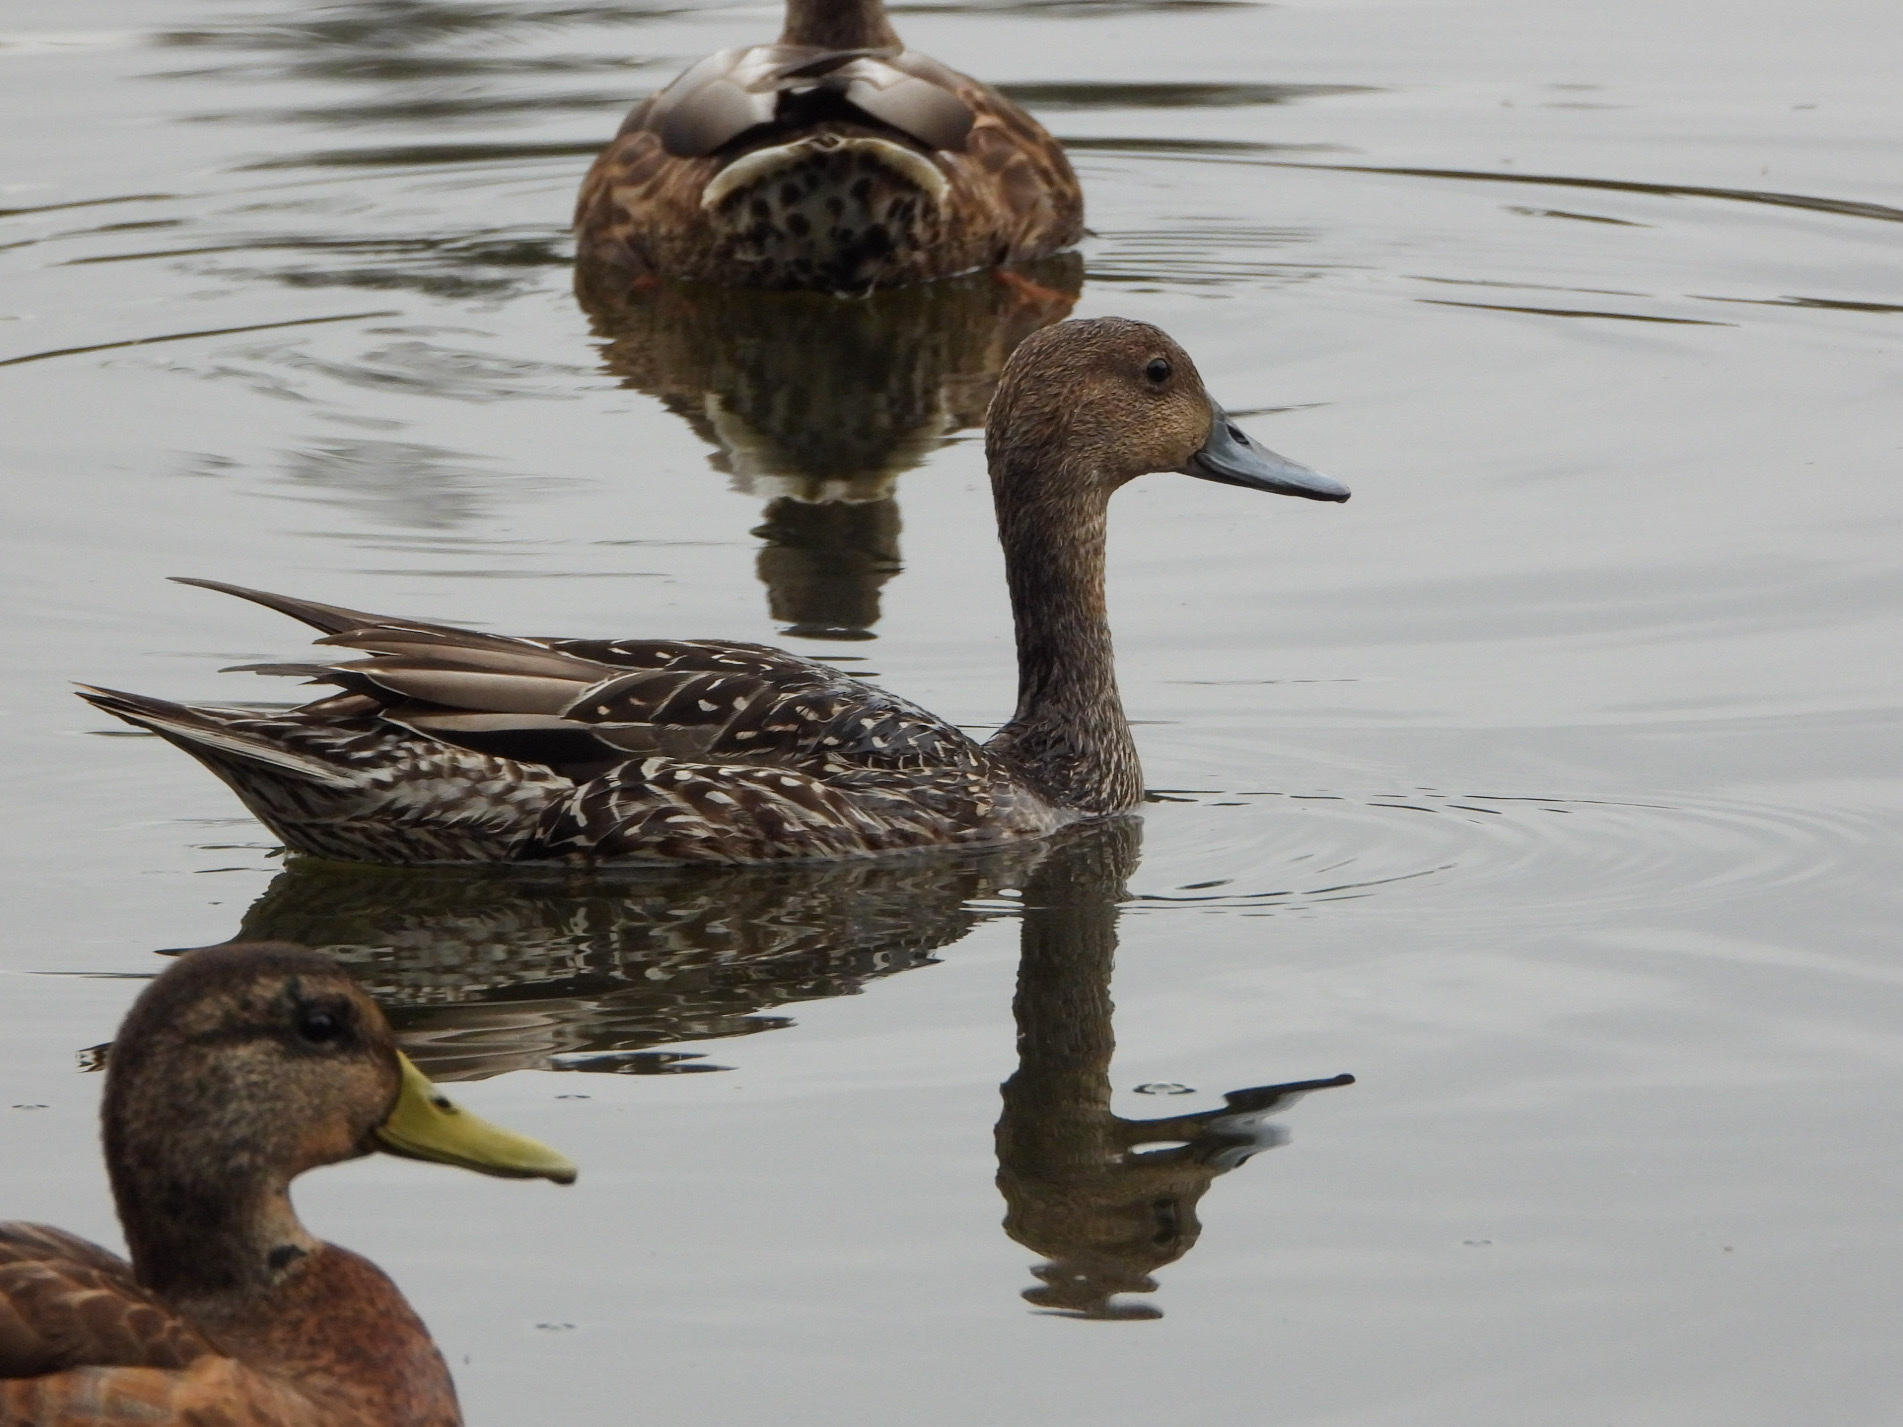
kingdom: Animalia
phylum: Chordata
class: Aves
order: Anseriformes
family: Anatidae
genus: Anas
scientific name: Anas acuta
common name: Northern pintail
